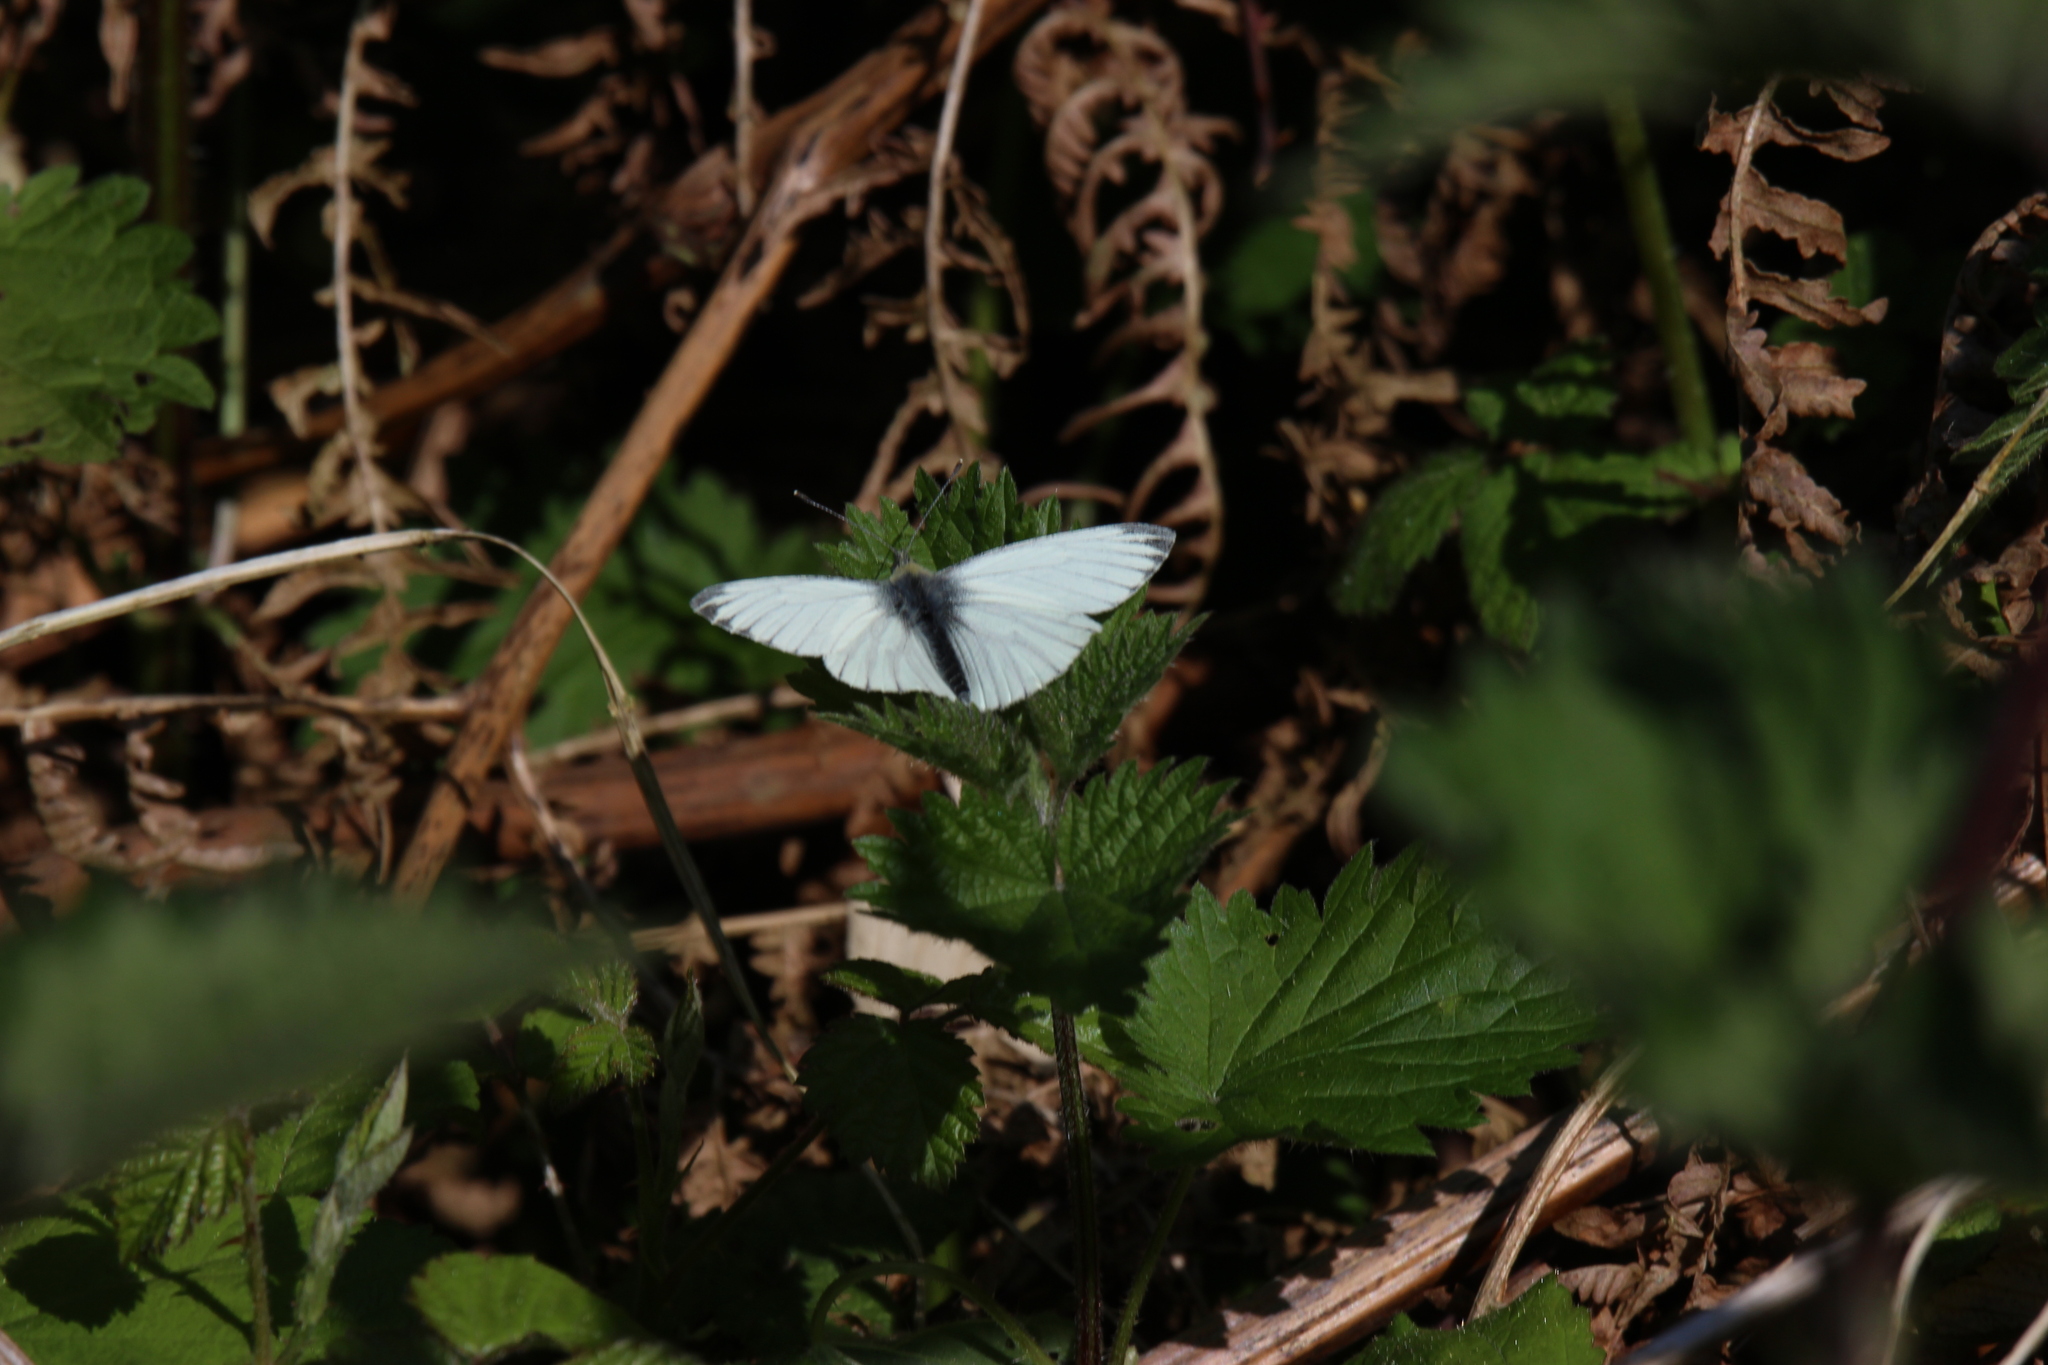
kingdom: Animalia
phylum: Arthropoda
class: Insecta
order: Lepidoptera
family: Pieridae
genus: Pieris
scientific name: Pieris napi
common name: Green-veined white
